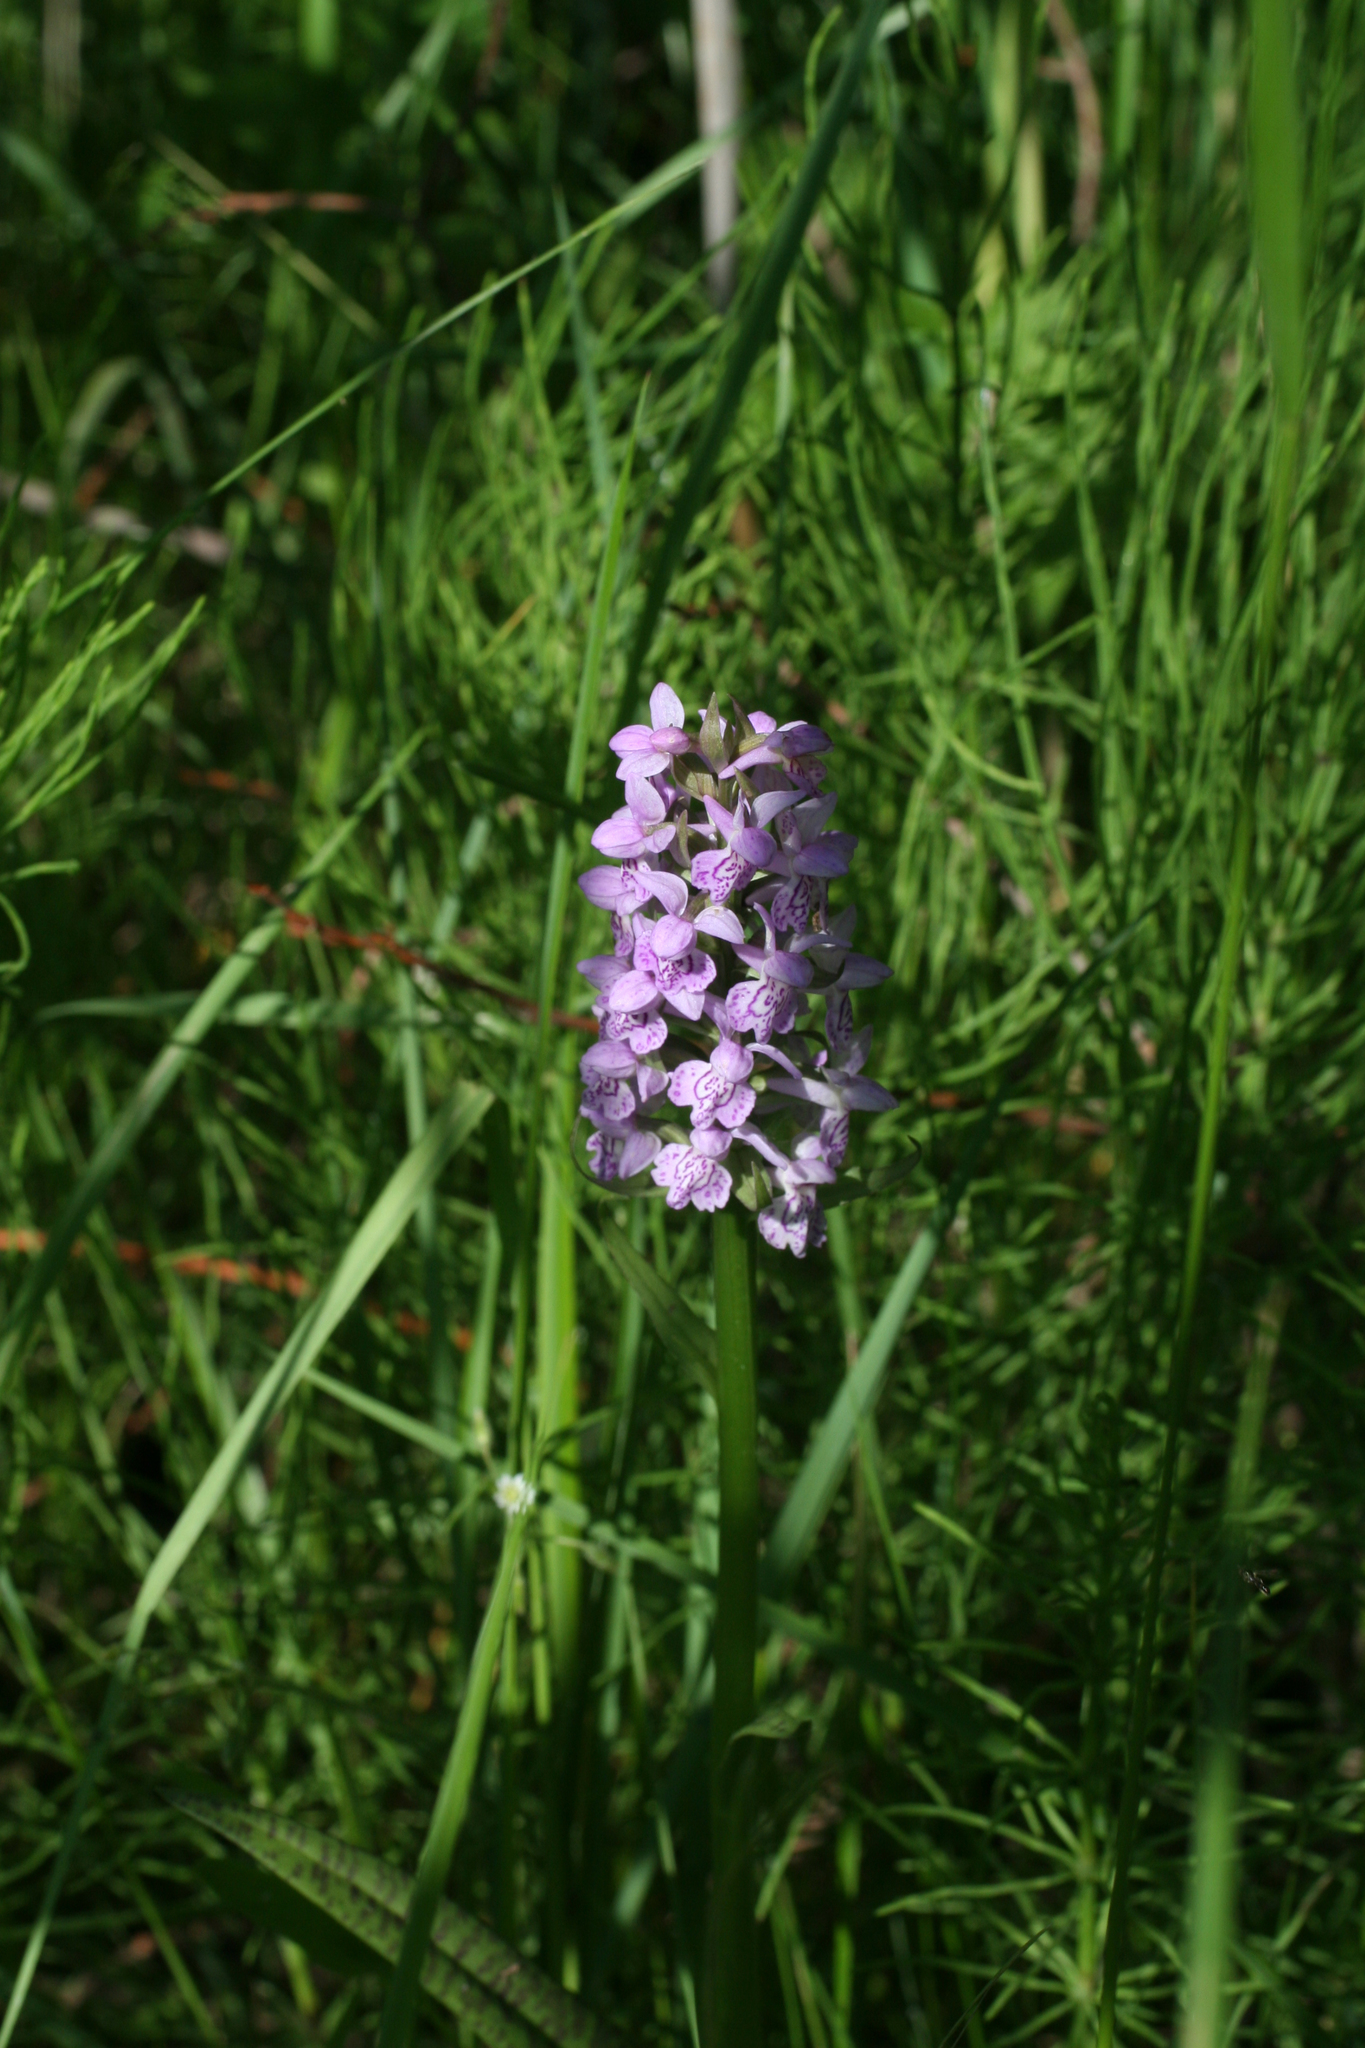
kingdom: Plantae
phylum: Tracheophyta
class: Liliopsida
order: Asparagales
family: Orchidaceae
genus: Dactylorhiza
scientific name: Dactylorhiza majalis
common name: Marsh orchid
